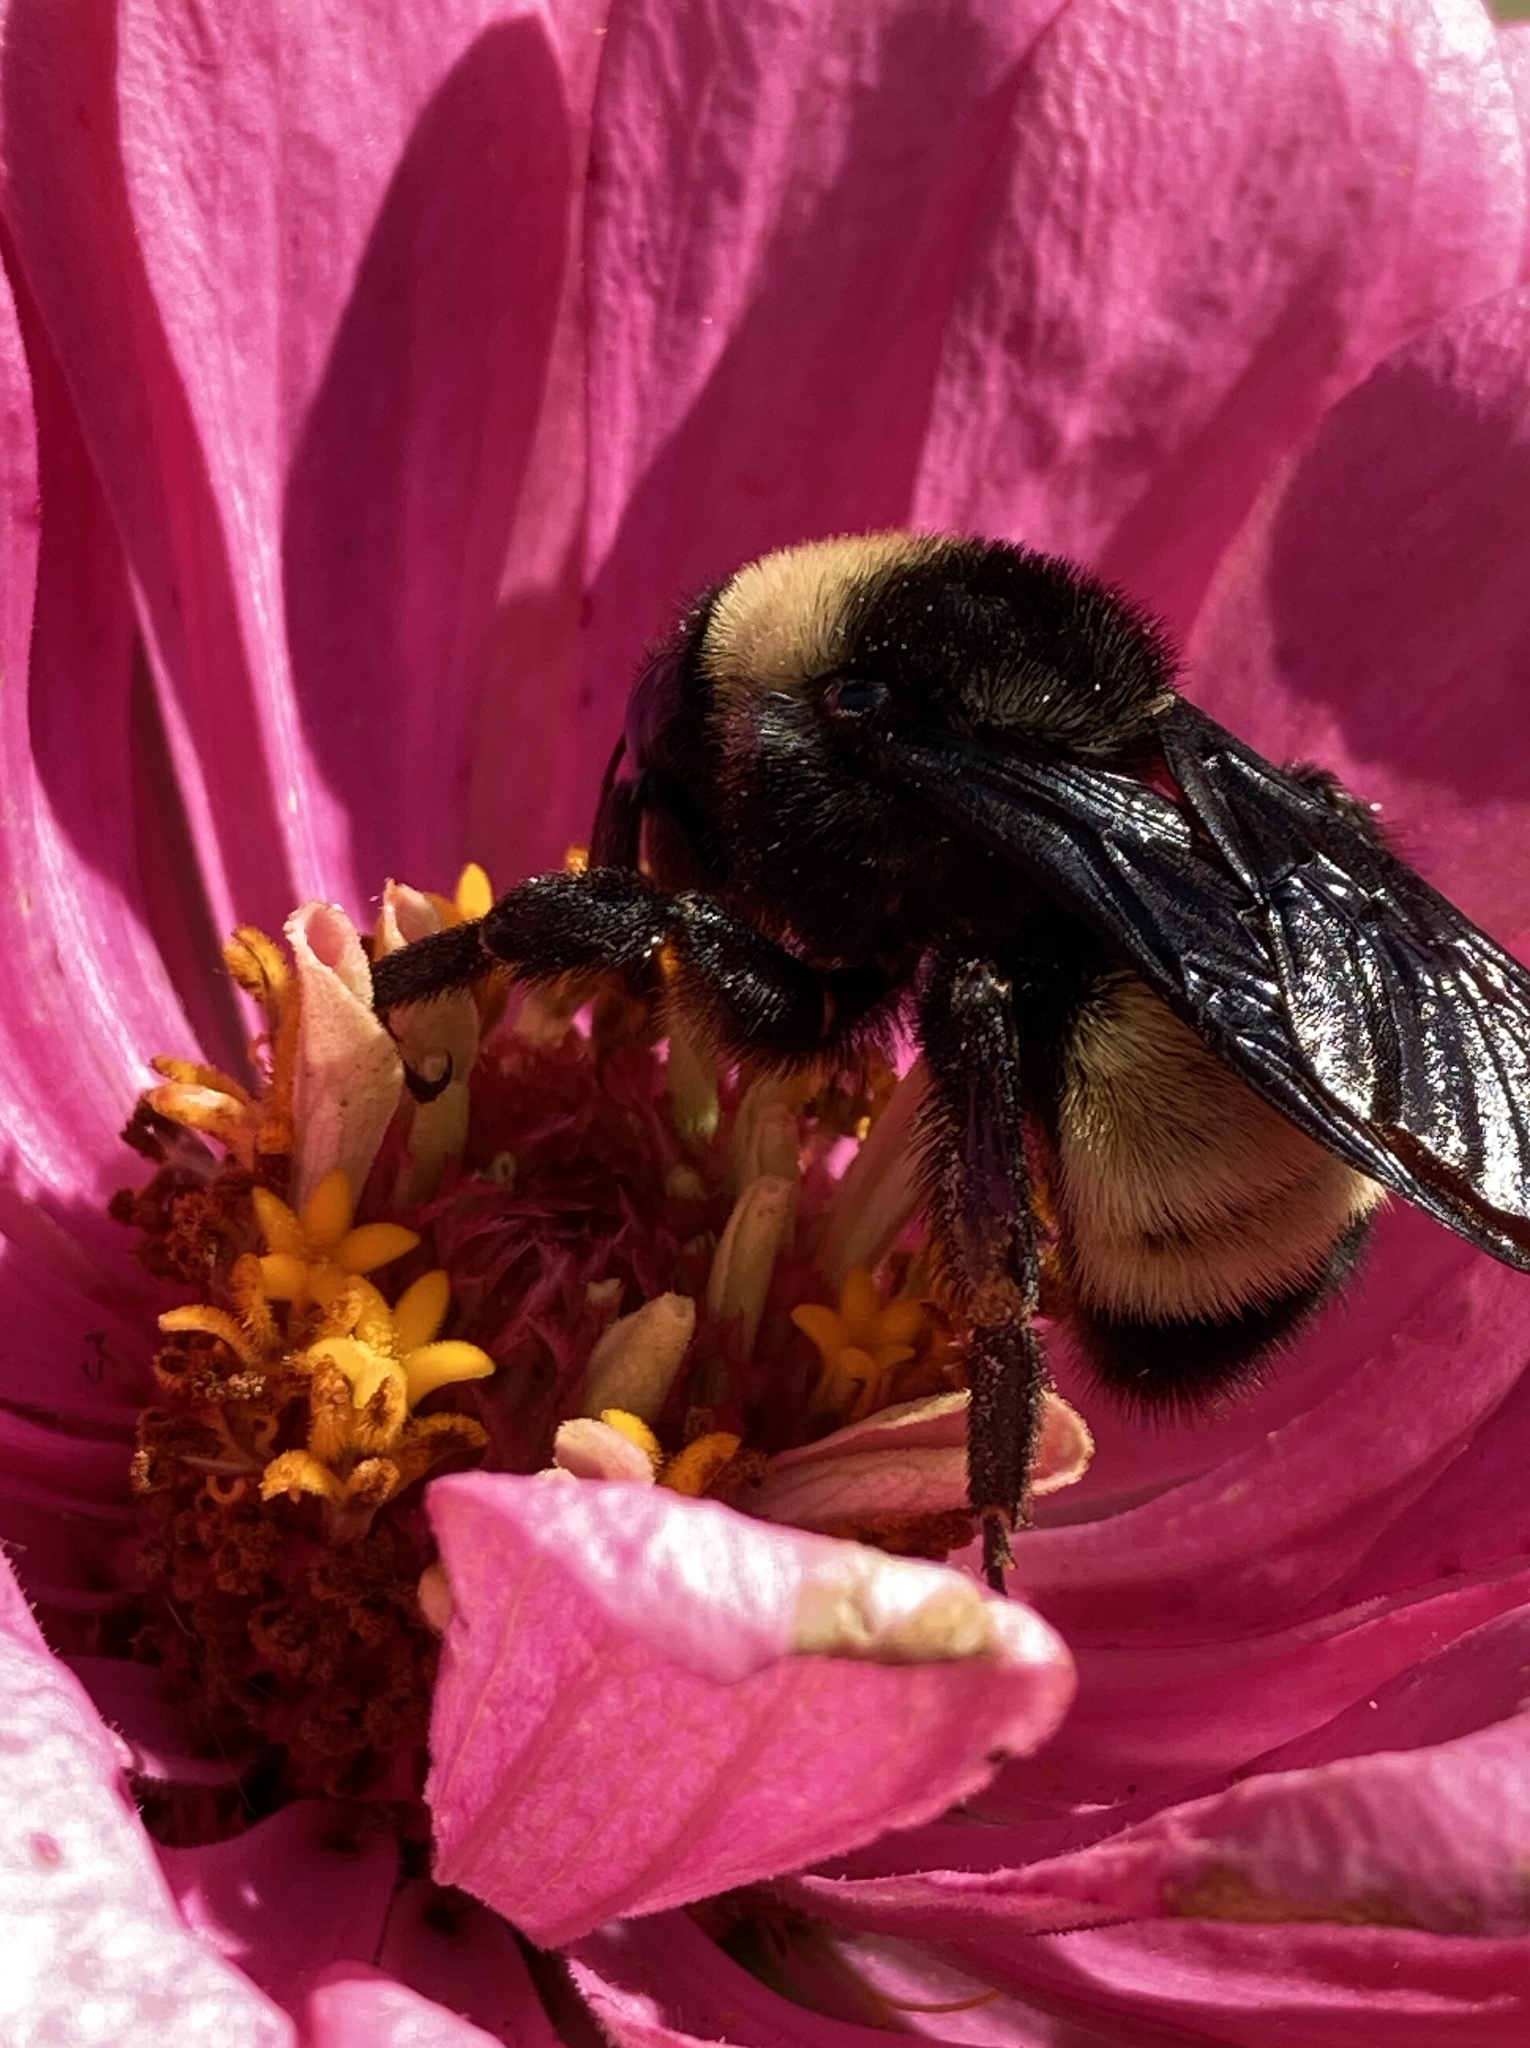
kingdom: Animalia
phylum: Arthropoda
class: Insecta
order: Hymenoptera
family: Apidae
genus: Bombus
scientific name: Bombus pensylvanicus
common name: Bumble bee
